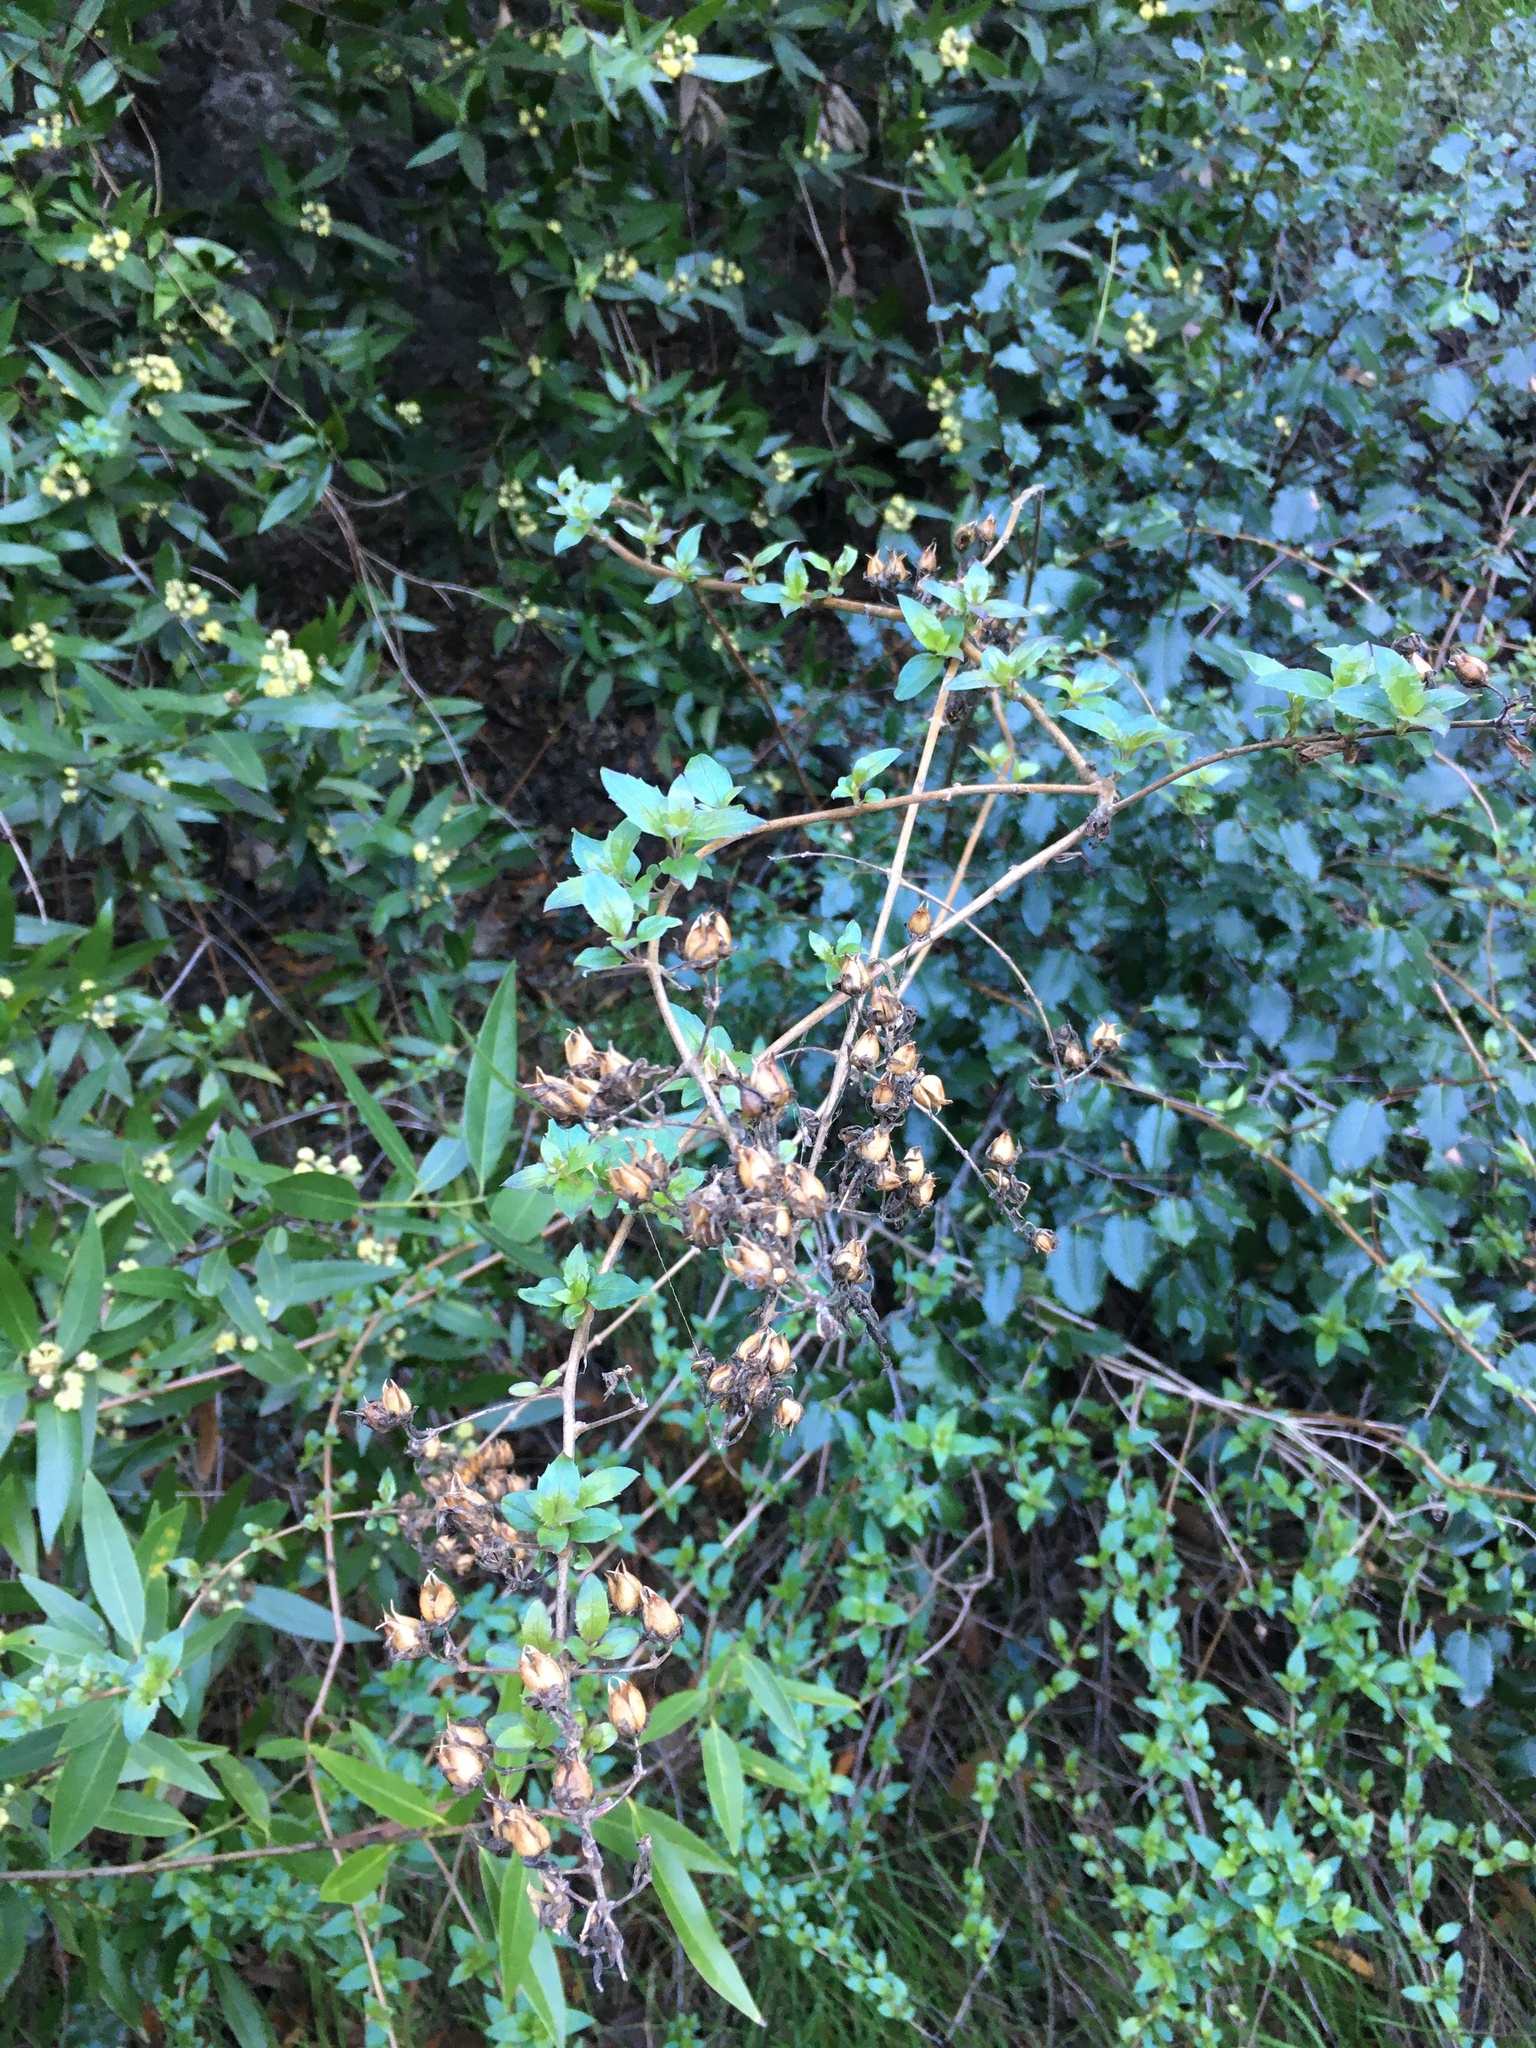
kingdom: Plantae
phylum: Tracheophyta
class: Magnoliopsida
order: Lamiales
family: Plantaginaceae
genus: Keckiella
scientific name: Keckiella cordifolia
